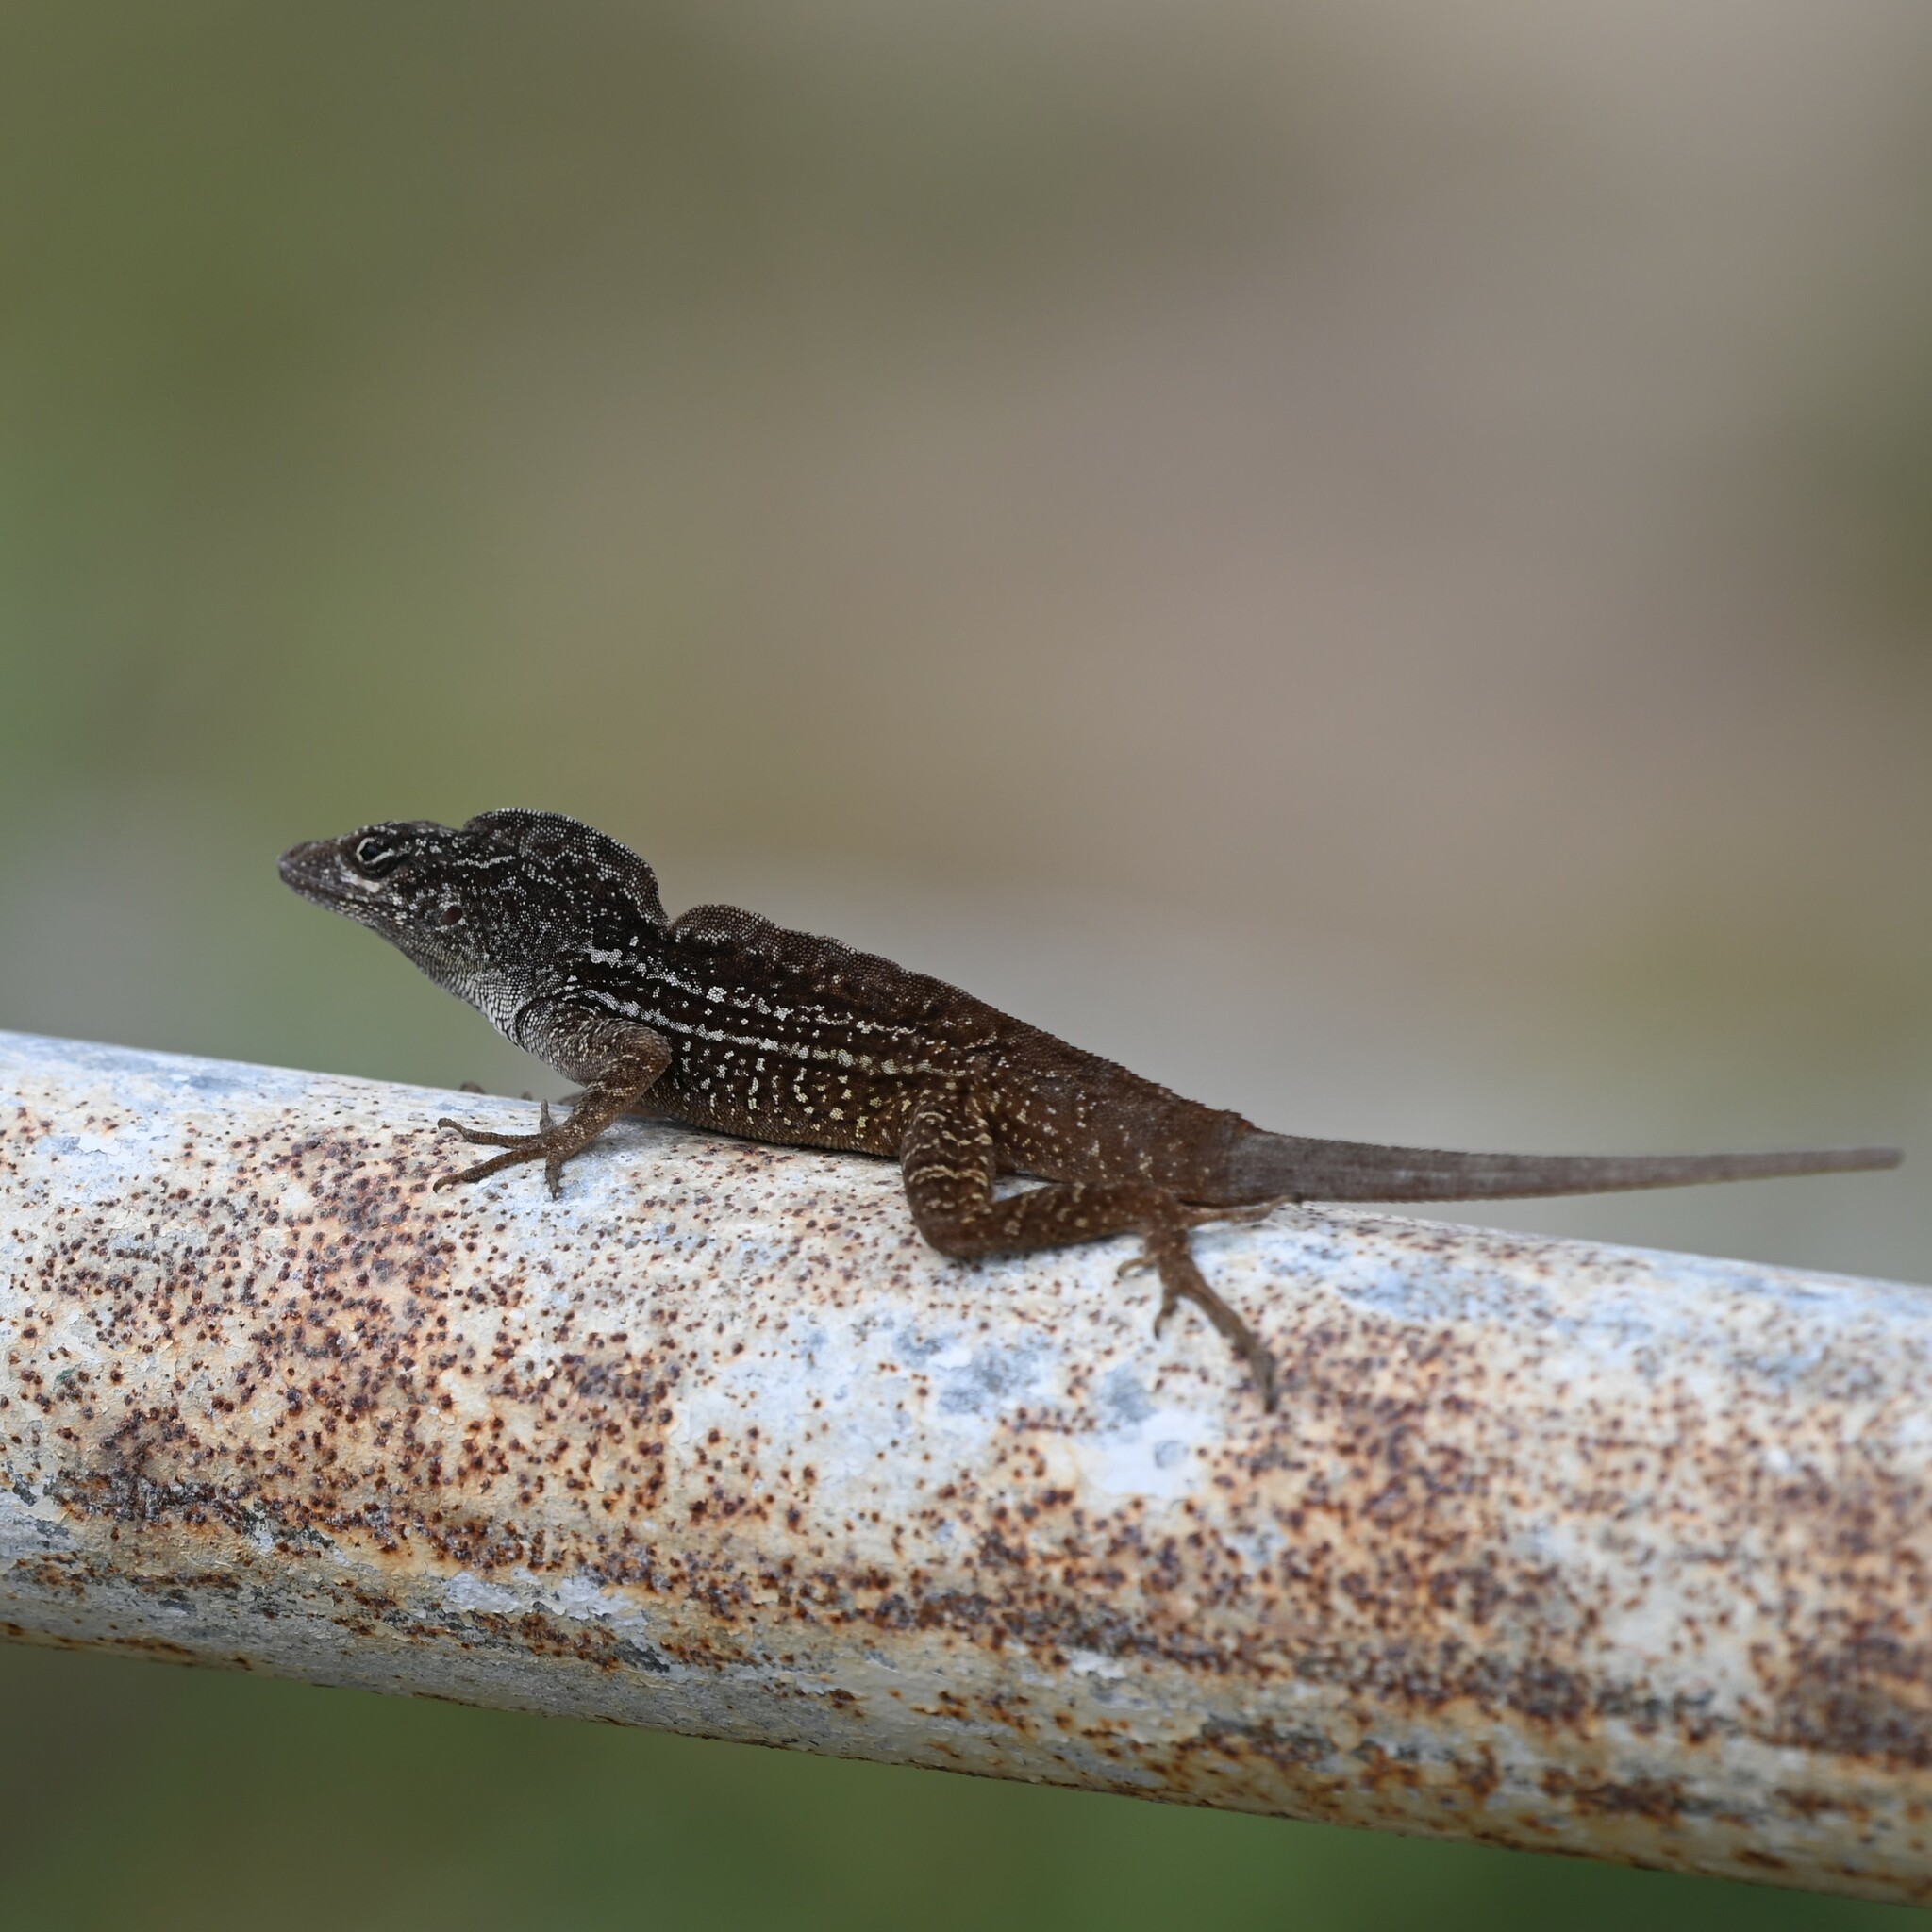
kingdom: Animalia
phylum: Chordata
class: Squamata
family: Dactyloidae
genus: Anolis
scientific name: Anolis sagrei
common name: Brown anole
